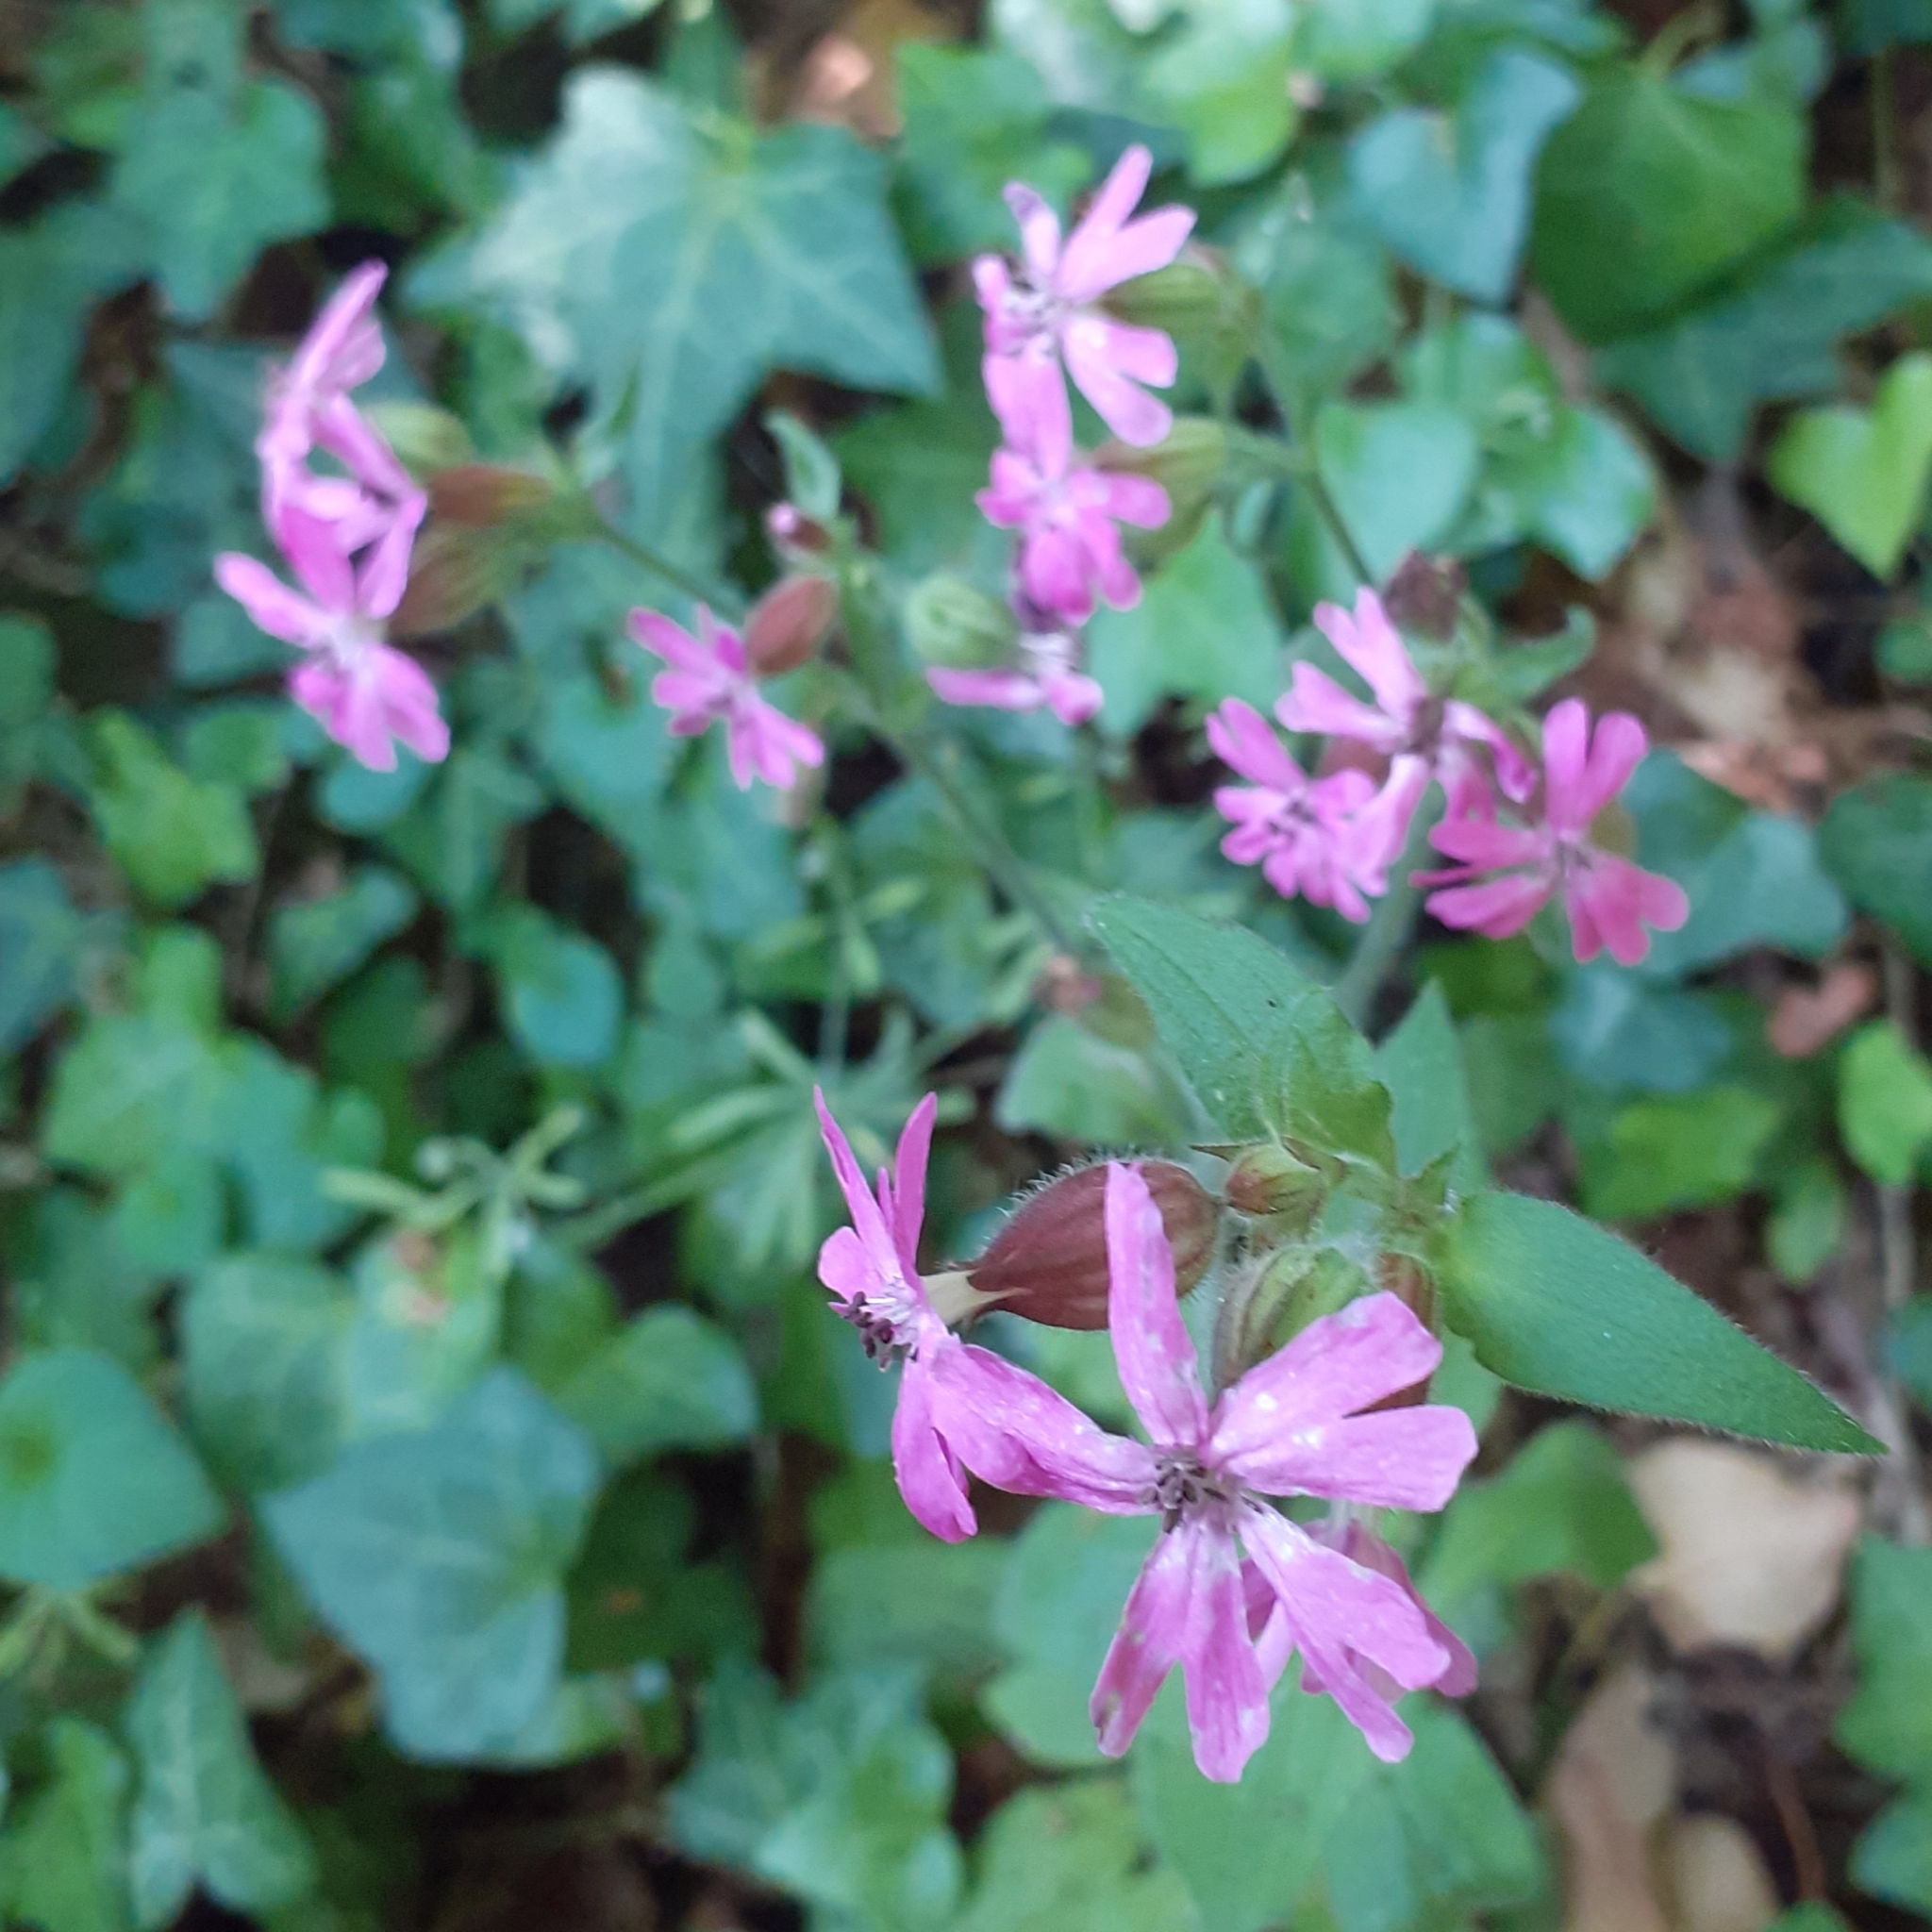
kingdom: Plantae
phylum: Tracheophyta
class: Magnoliopsida
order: Caryophyllales
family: Caryophyllaceae
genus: Silene
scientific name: Silene dioica
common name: Red campion
